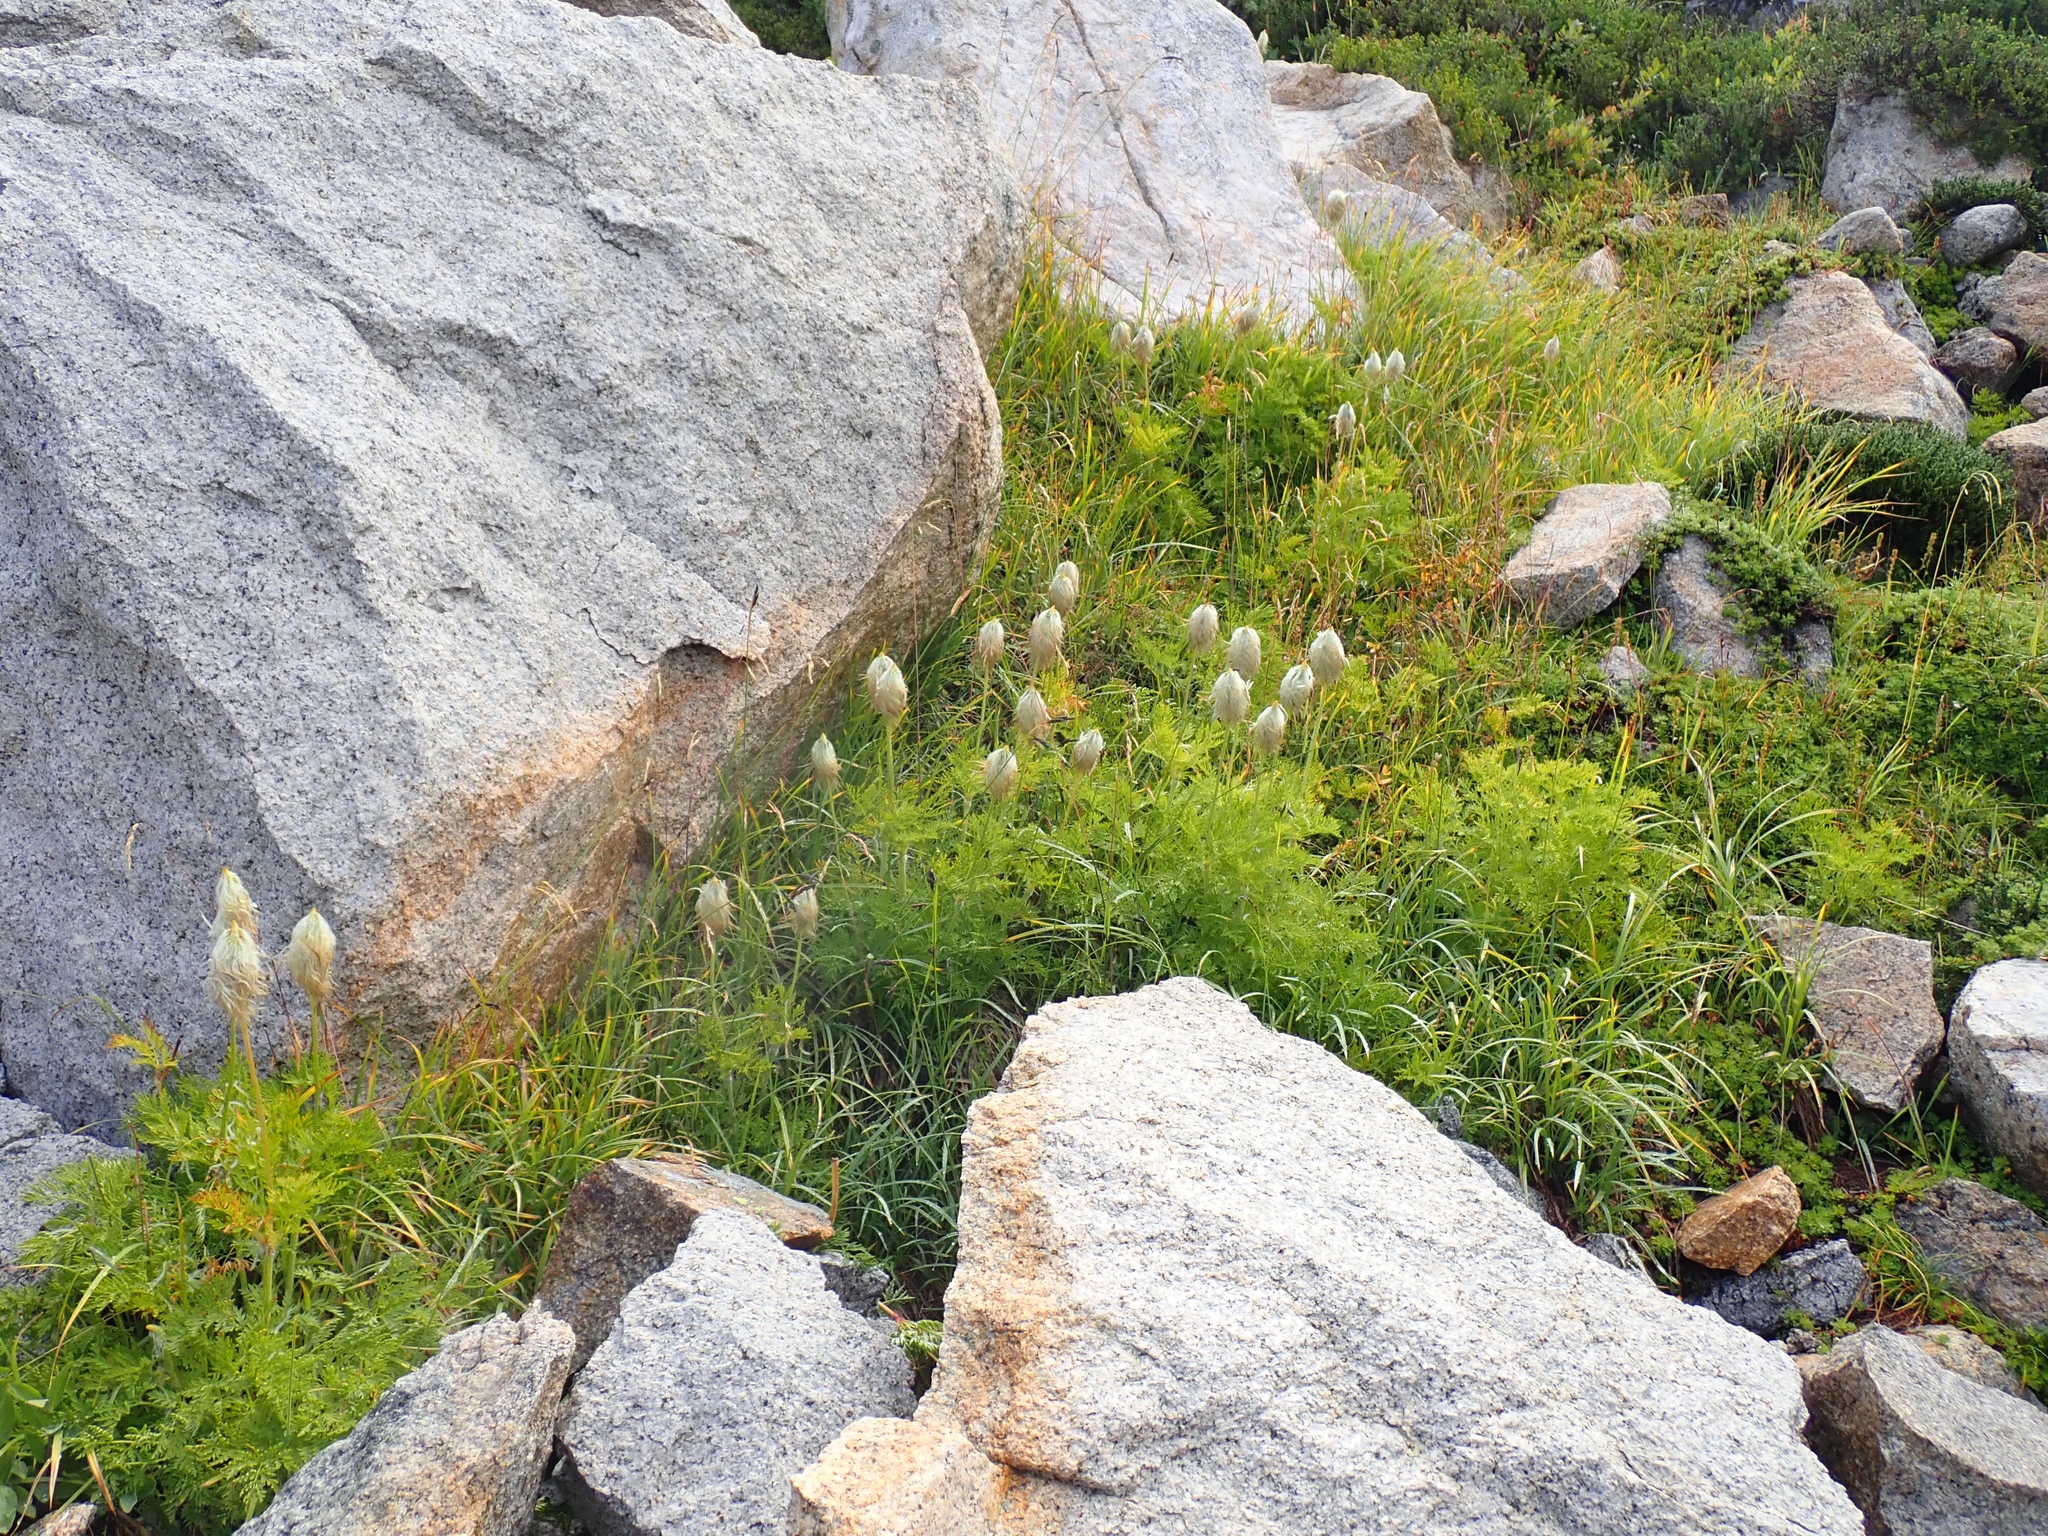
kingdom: Plantae
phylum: Tracheophyta
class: Magnoliopsida
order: Ranunculales
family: Ranunculaceae
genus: Pulsatilla
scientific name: Pulsatilla occidentalis
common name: Mountain pasqueflower
